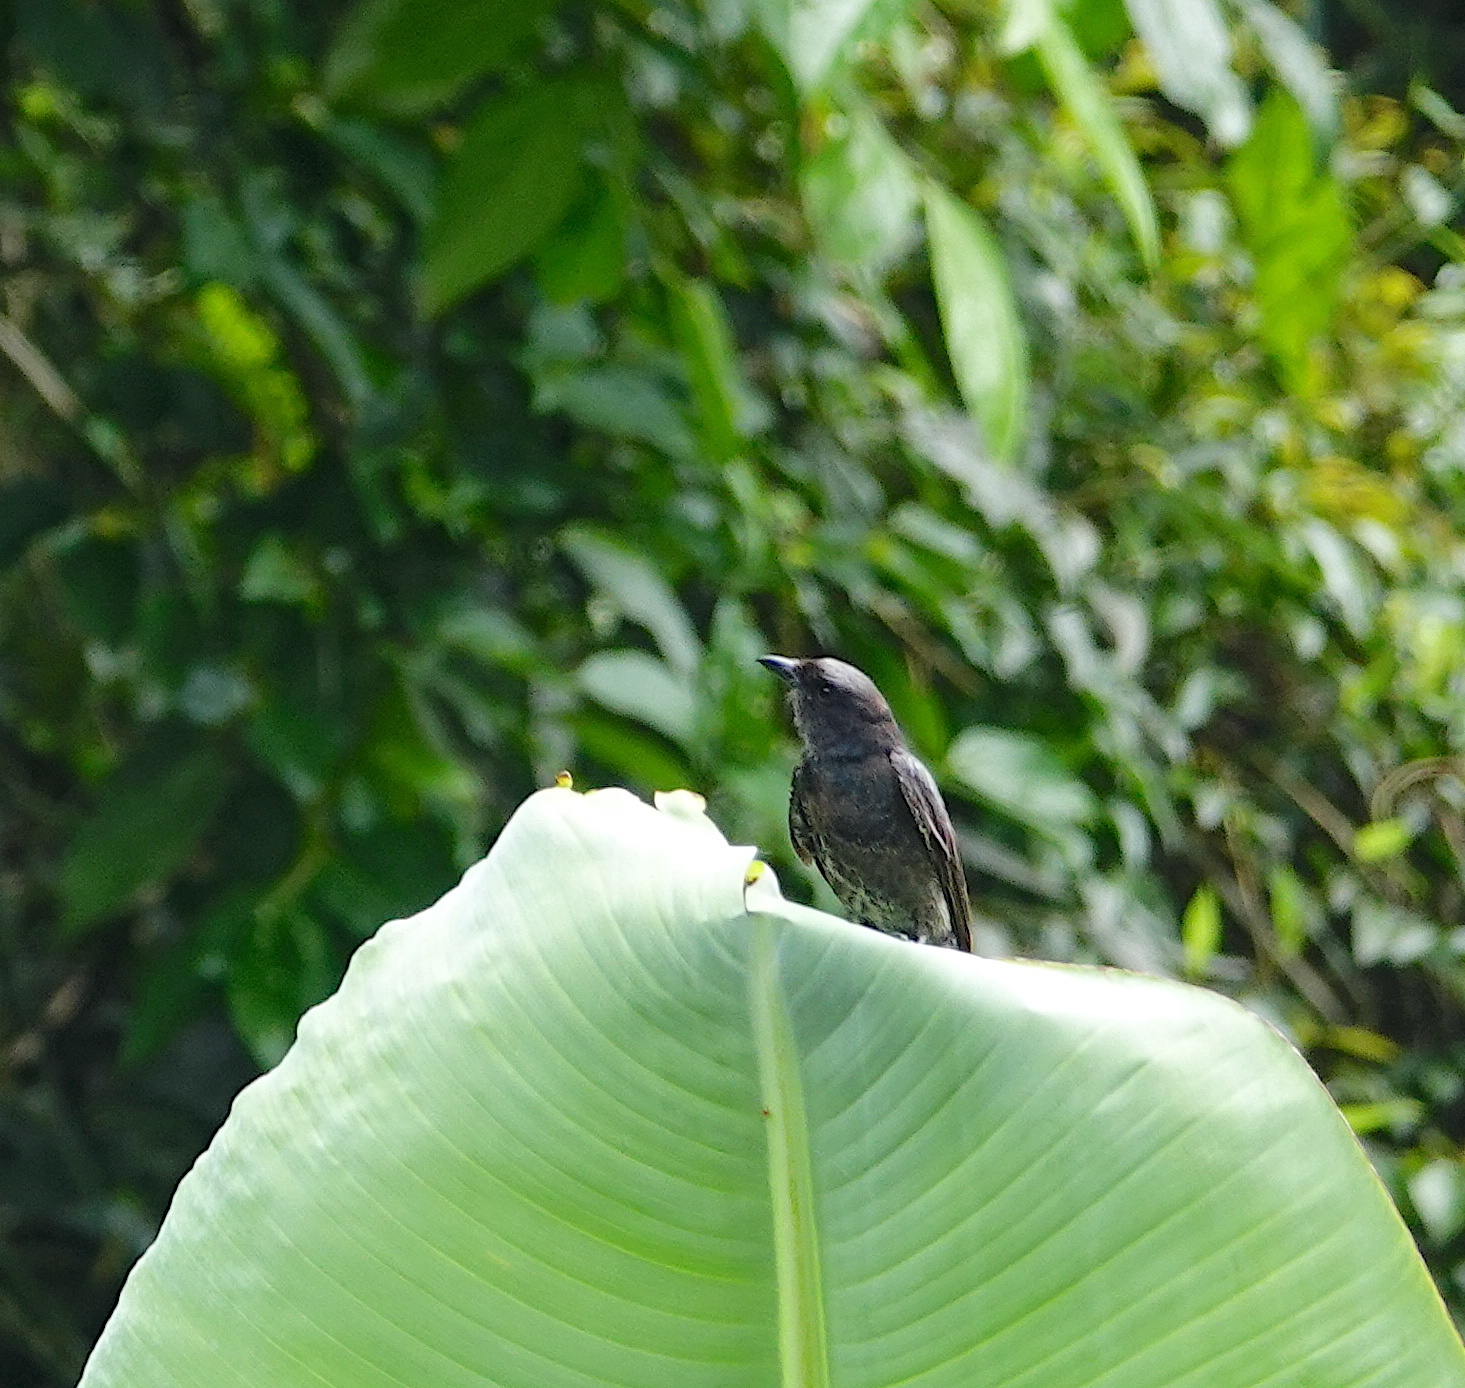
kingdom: Animalia
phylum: Chordata
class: Aves
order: Passeriformes
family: Dicruridae
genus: Dicrurus
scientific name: Dicrurus macrocercus
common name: Black drongo
